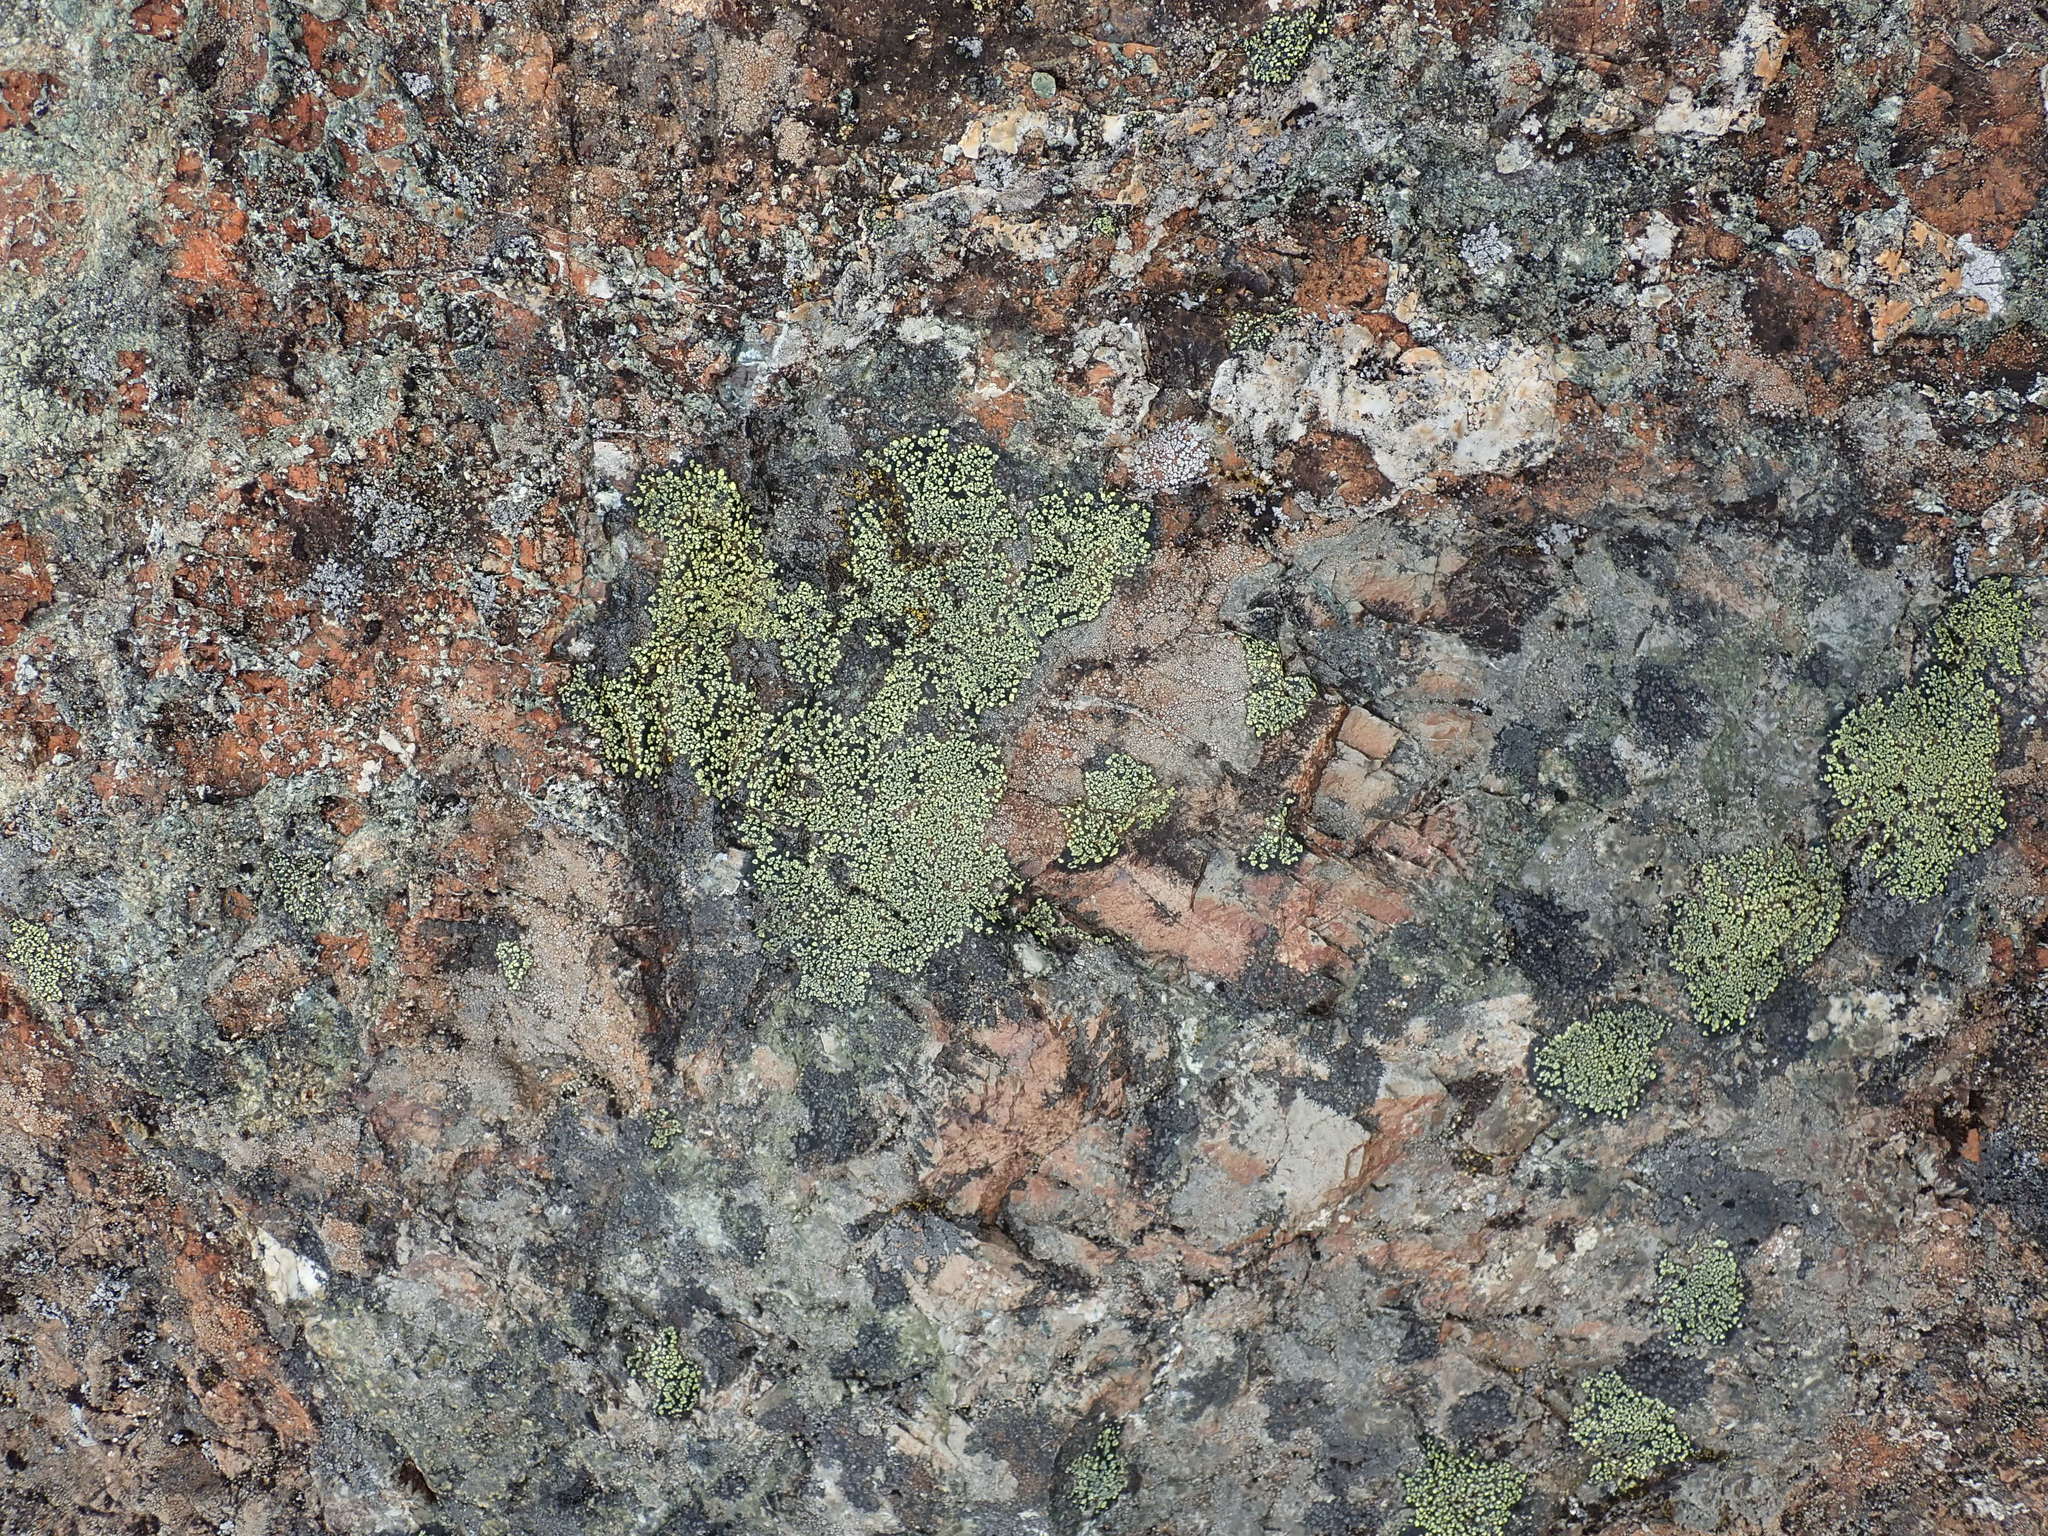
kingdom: Fungi
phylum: Ascomycota
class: Lecanoromycetes
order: Rhizocarpales
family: Rhizocarpaceae
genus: Rhizocarpon
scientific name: Rhizocarpon geographicum
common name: Yellow map lichen
